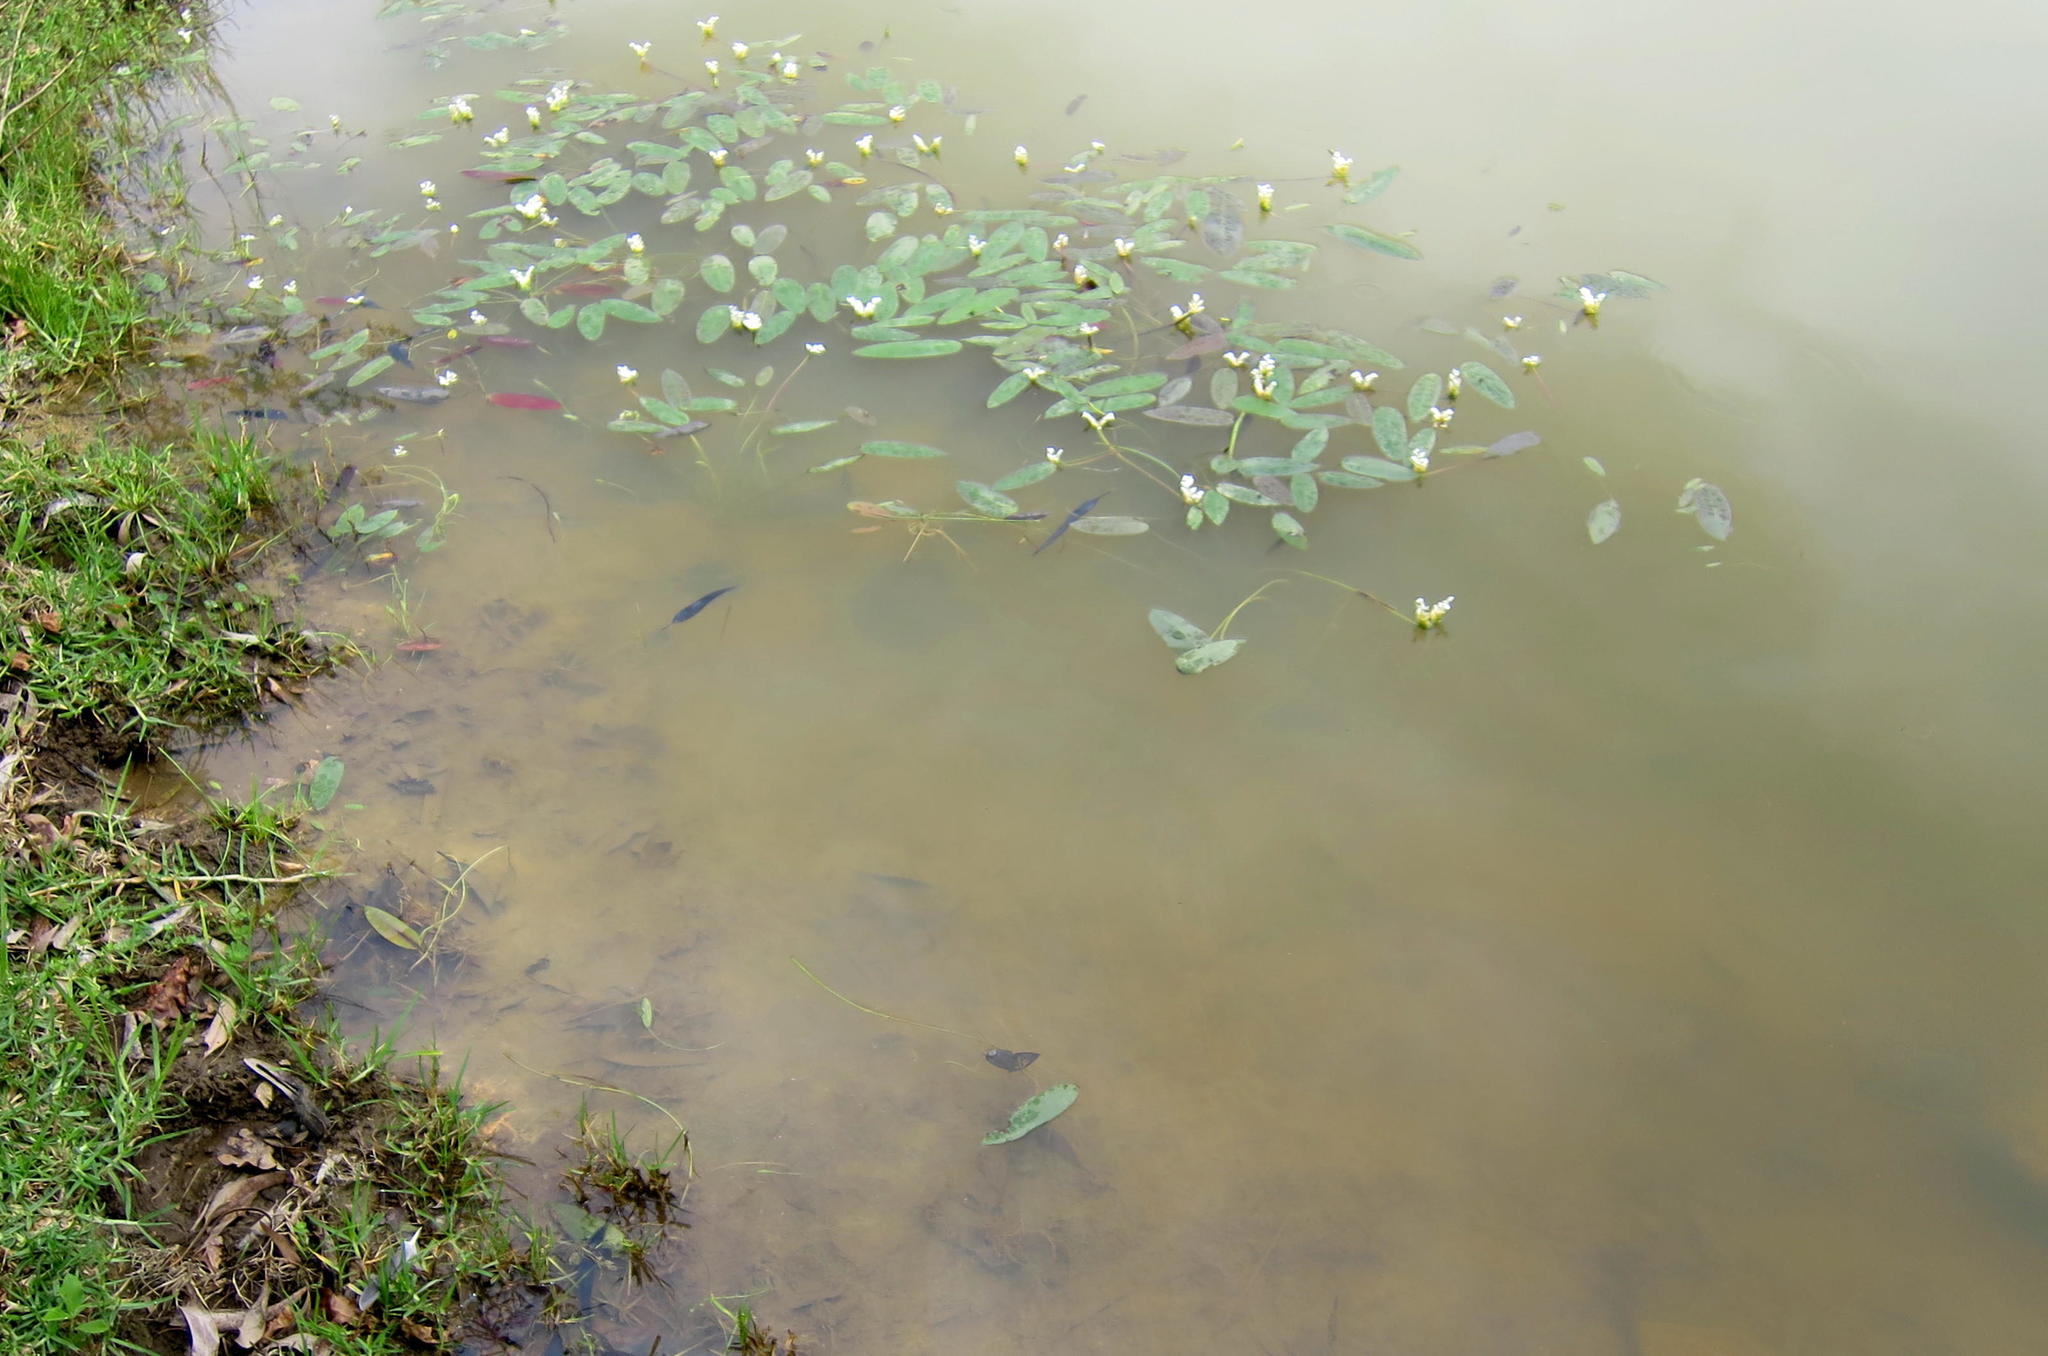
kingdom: Plantae
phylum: Tracheophyta
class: Liliopsida
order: Alismatales
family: Aponogetonaceae
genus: Aponogeton
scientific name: Aponogeton distachyos
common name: Cape-pondweed
